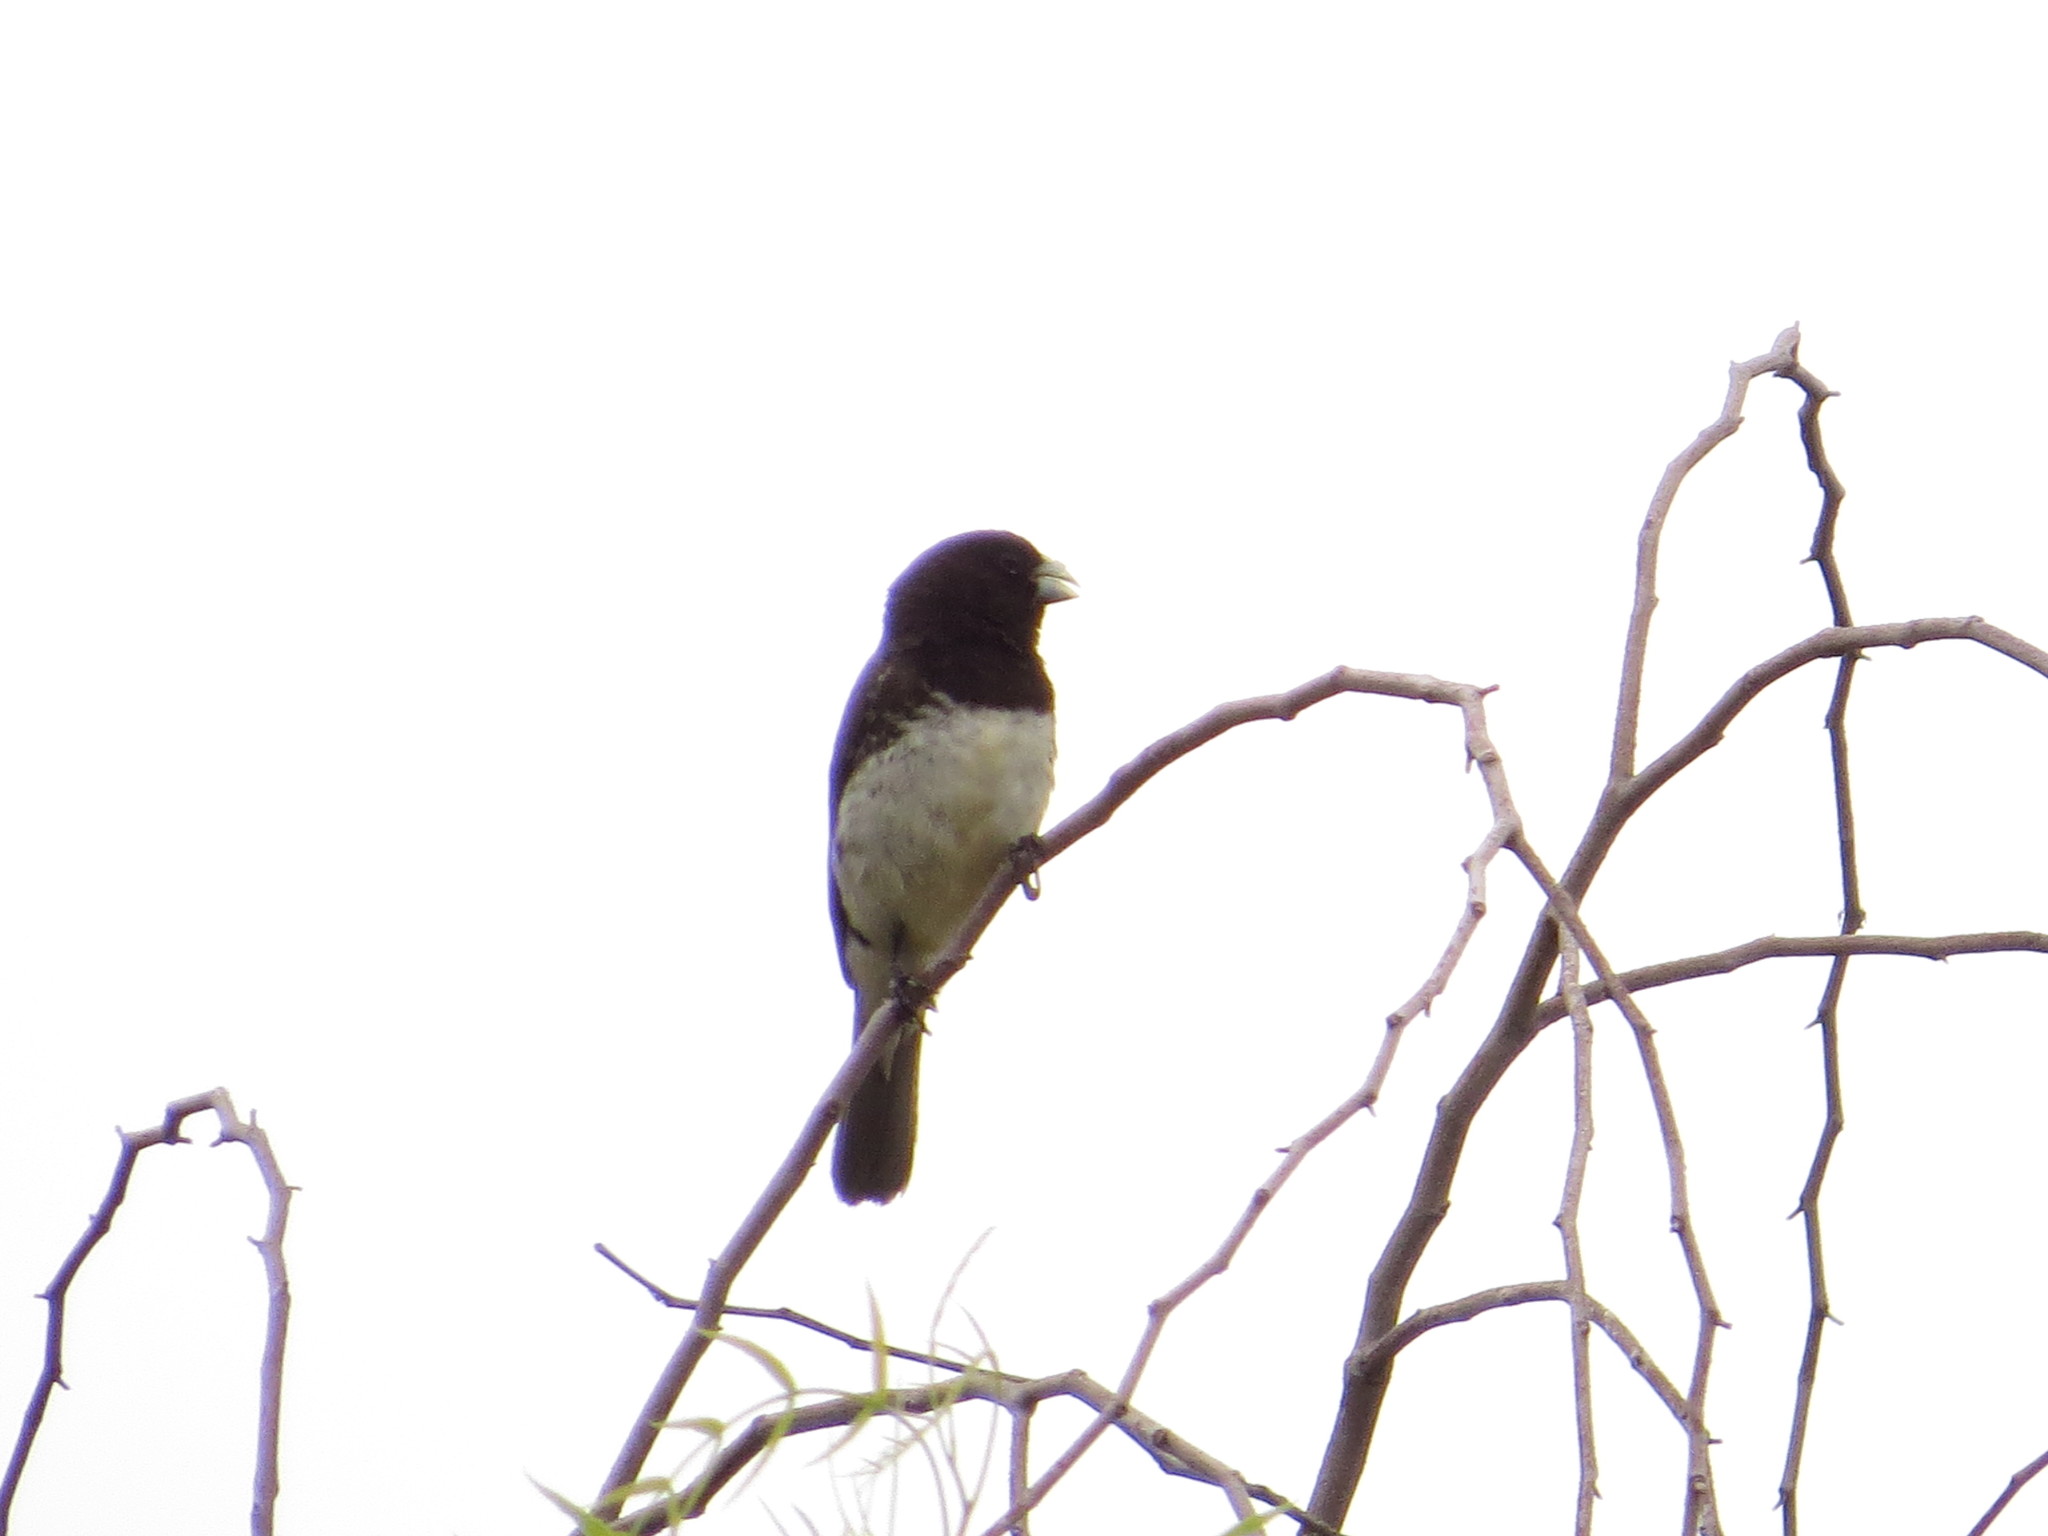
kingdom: Animalia
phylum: Chordata
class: Aves
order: Passeriformes
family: Thraupidae
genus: Sporophila
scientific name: Sporophila nigricollis
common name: Yellow-bellied seedeater
